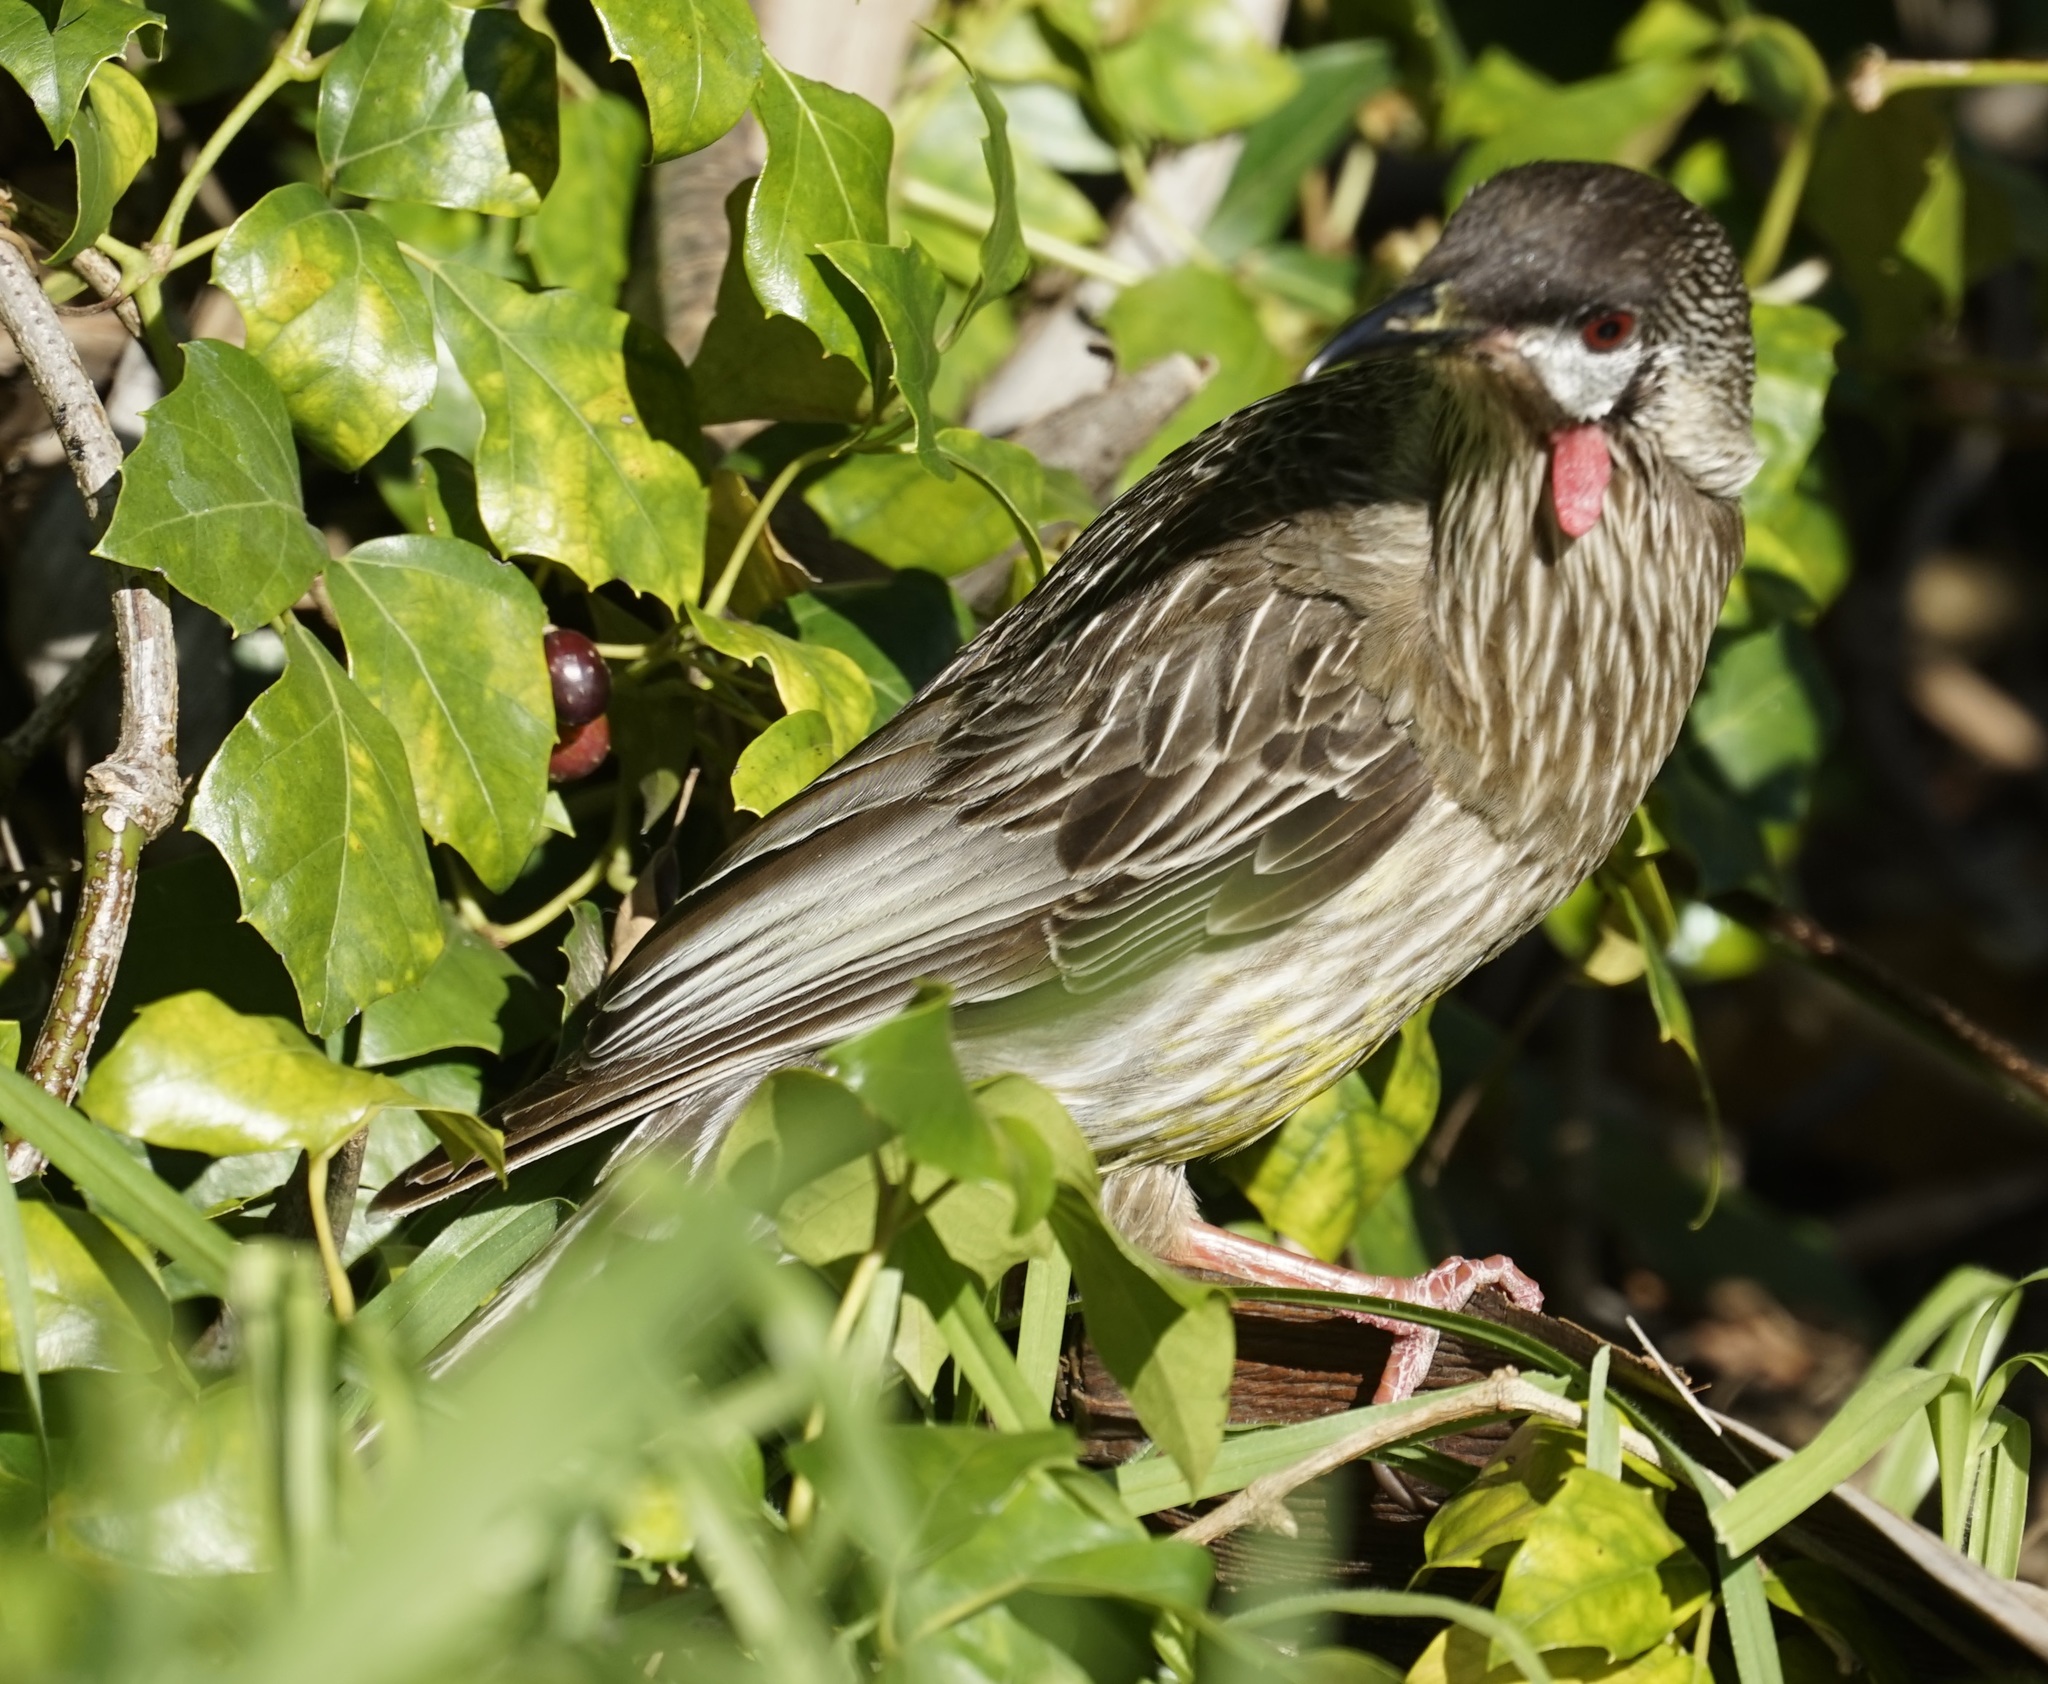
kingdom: Animalia
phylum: Chordata
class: Aves
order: Passeriformes
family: Meliphagidae
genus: Anthochaera
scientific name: Anthochaera carunculata
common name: Red wattlebird
